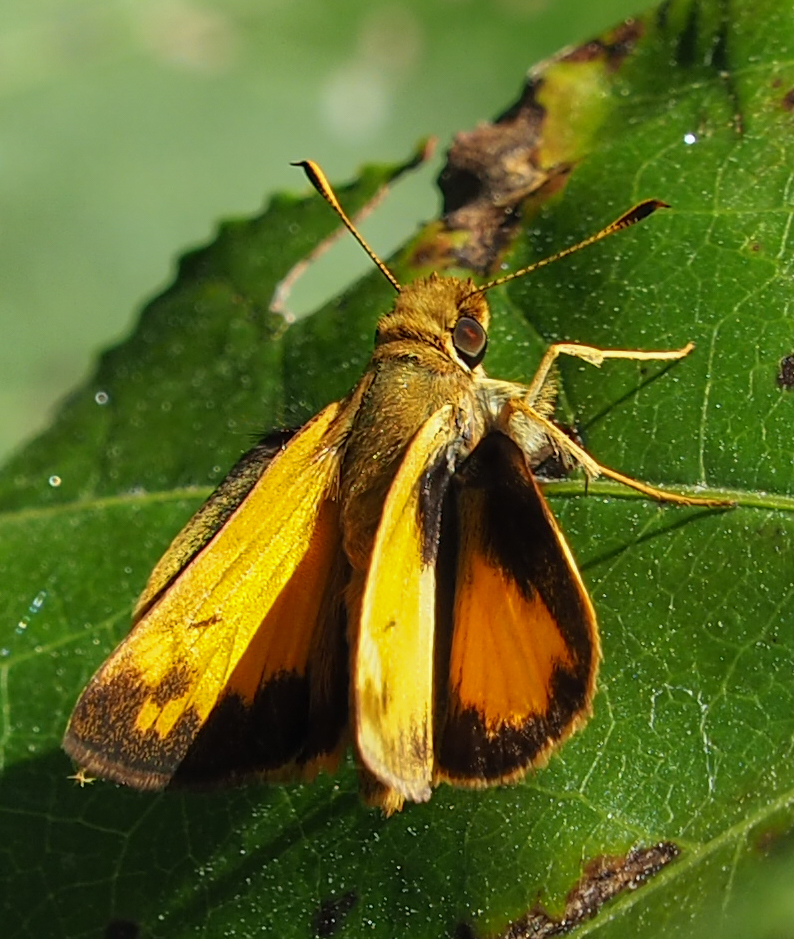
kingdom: Animalia
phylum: Arthropoda
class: Insecta
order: Lepidoptera
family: Hesperiidae
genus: Lon
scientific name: Lon zabulon
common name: Zabulon skipper
